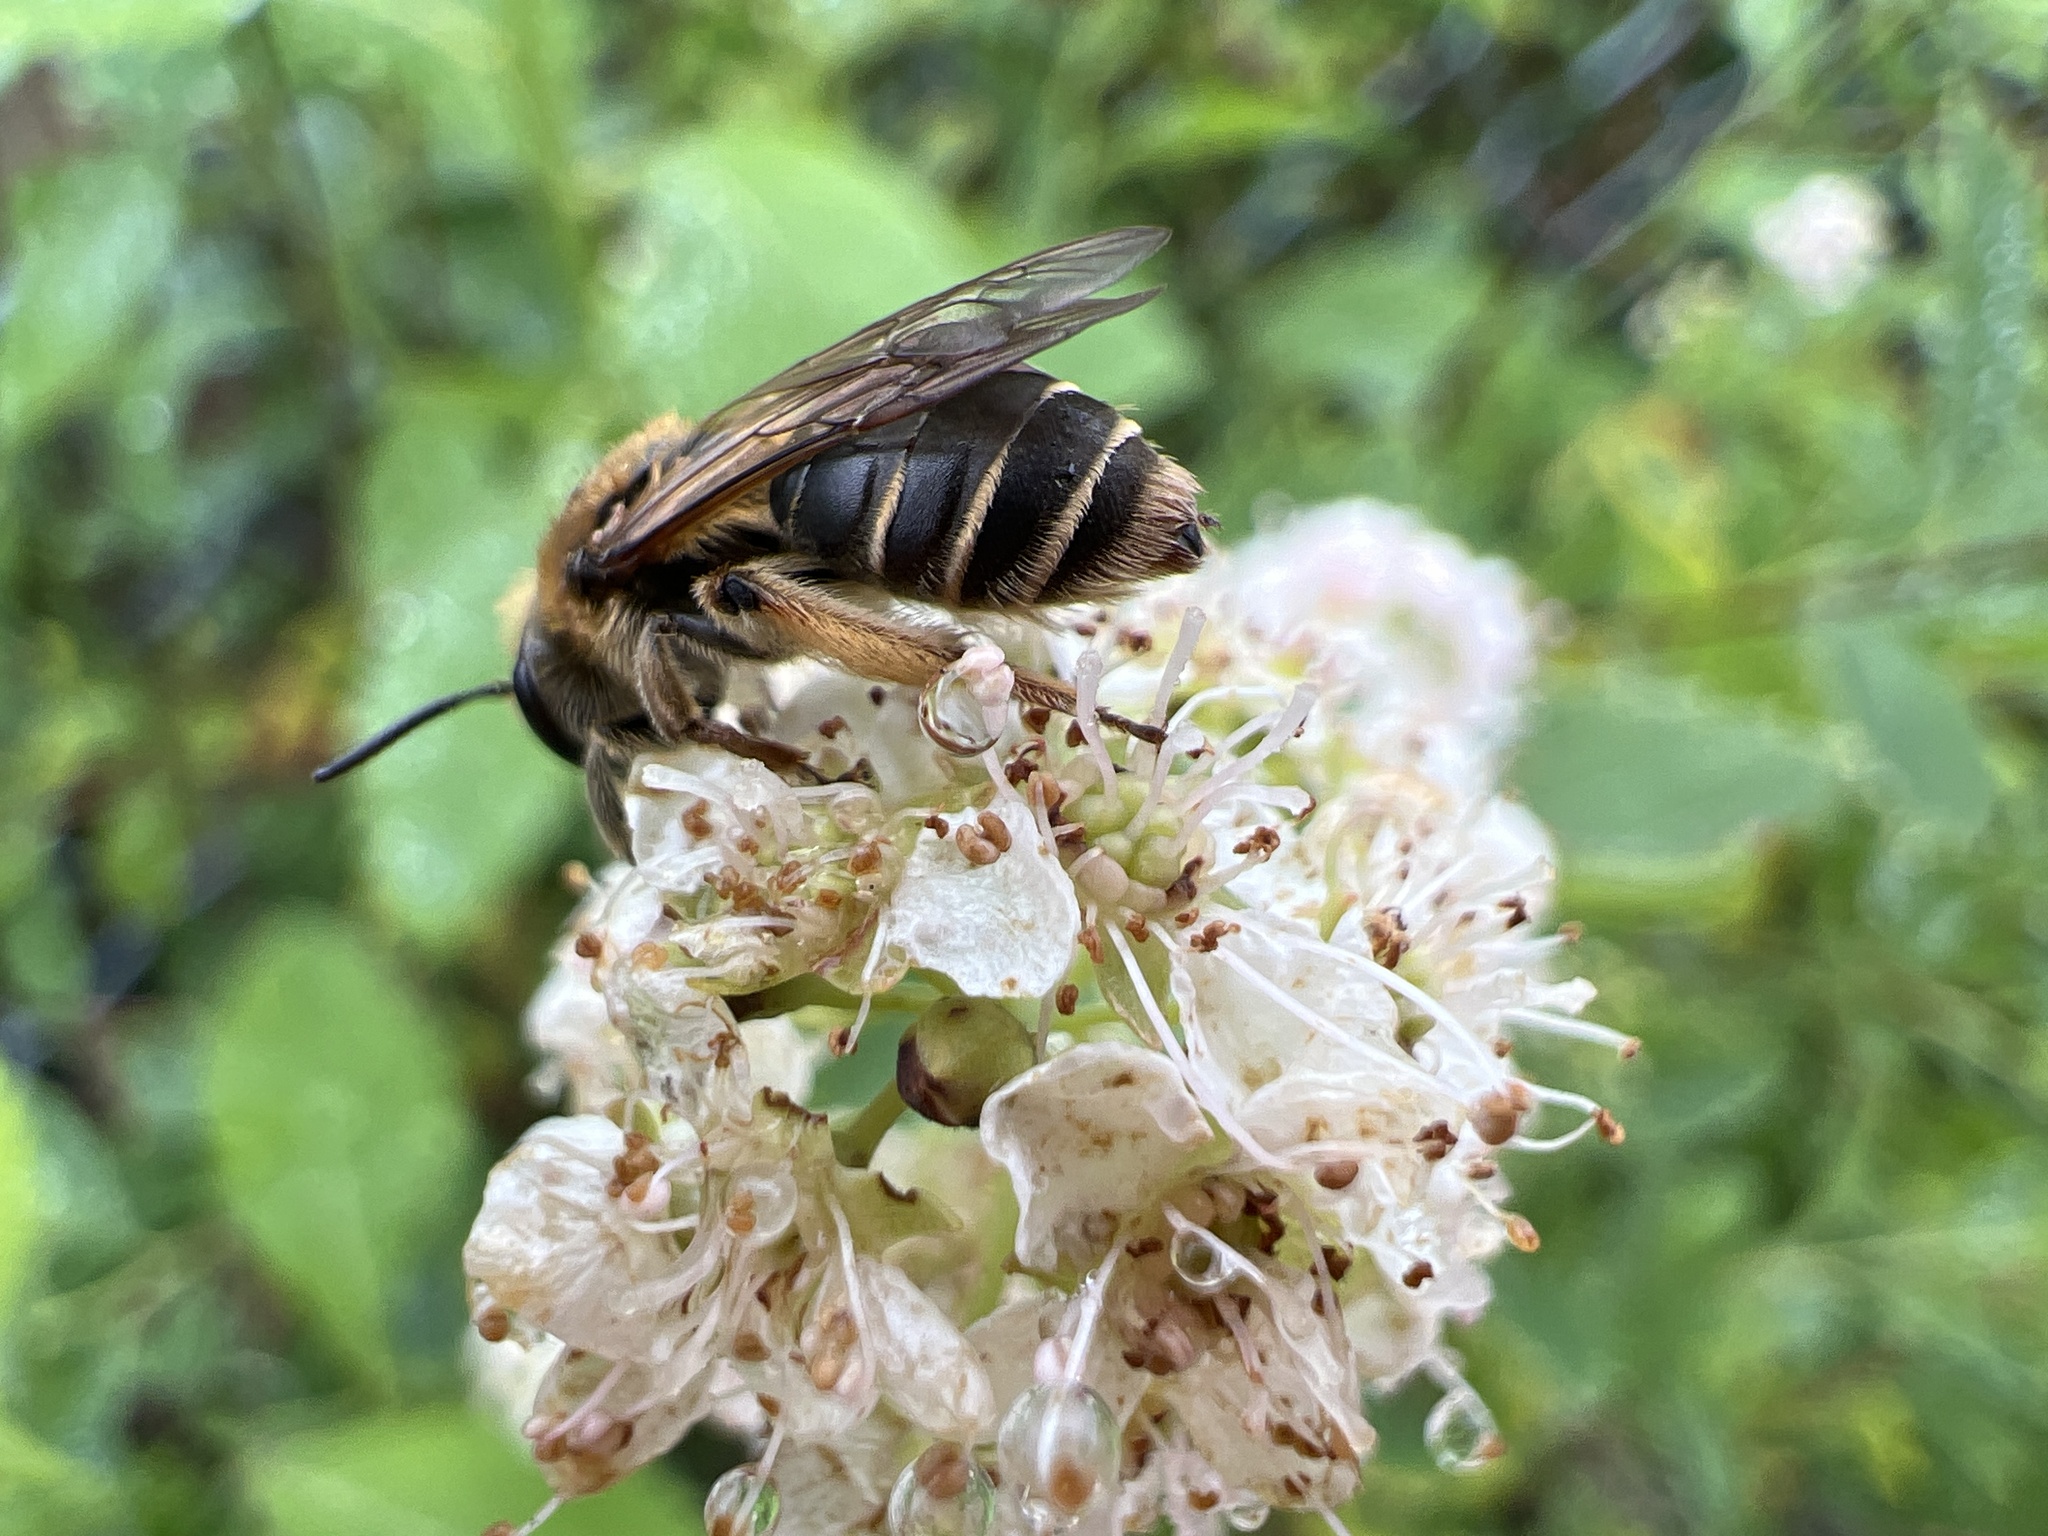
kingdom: Animalia
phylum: Arthropoda
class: Insecta
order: Hymenoptera
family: Andrenidae
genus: Andrena
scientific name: Andrena wilkella
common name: Wilke's mining bee
